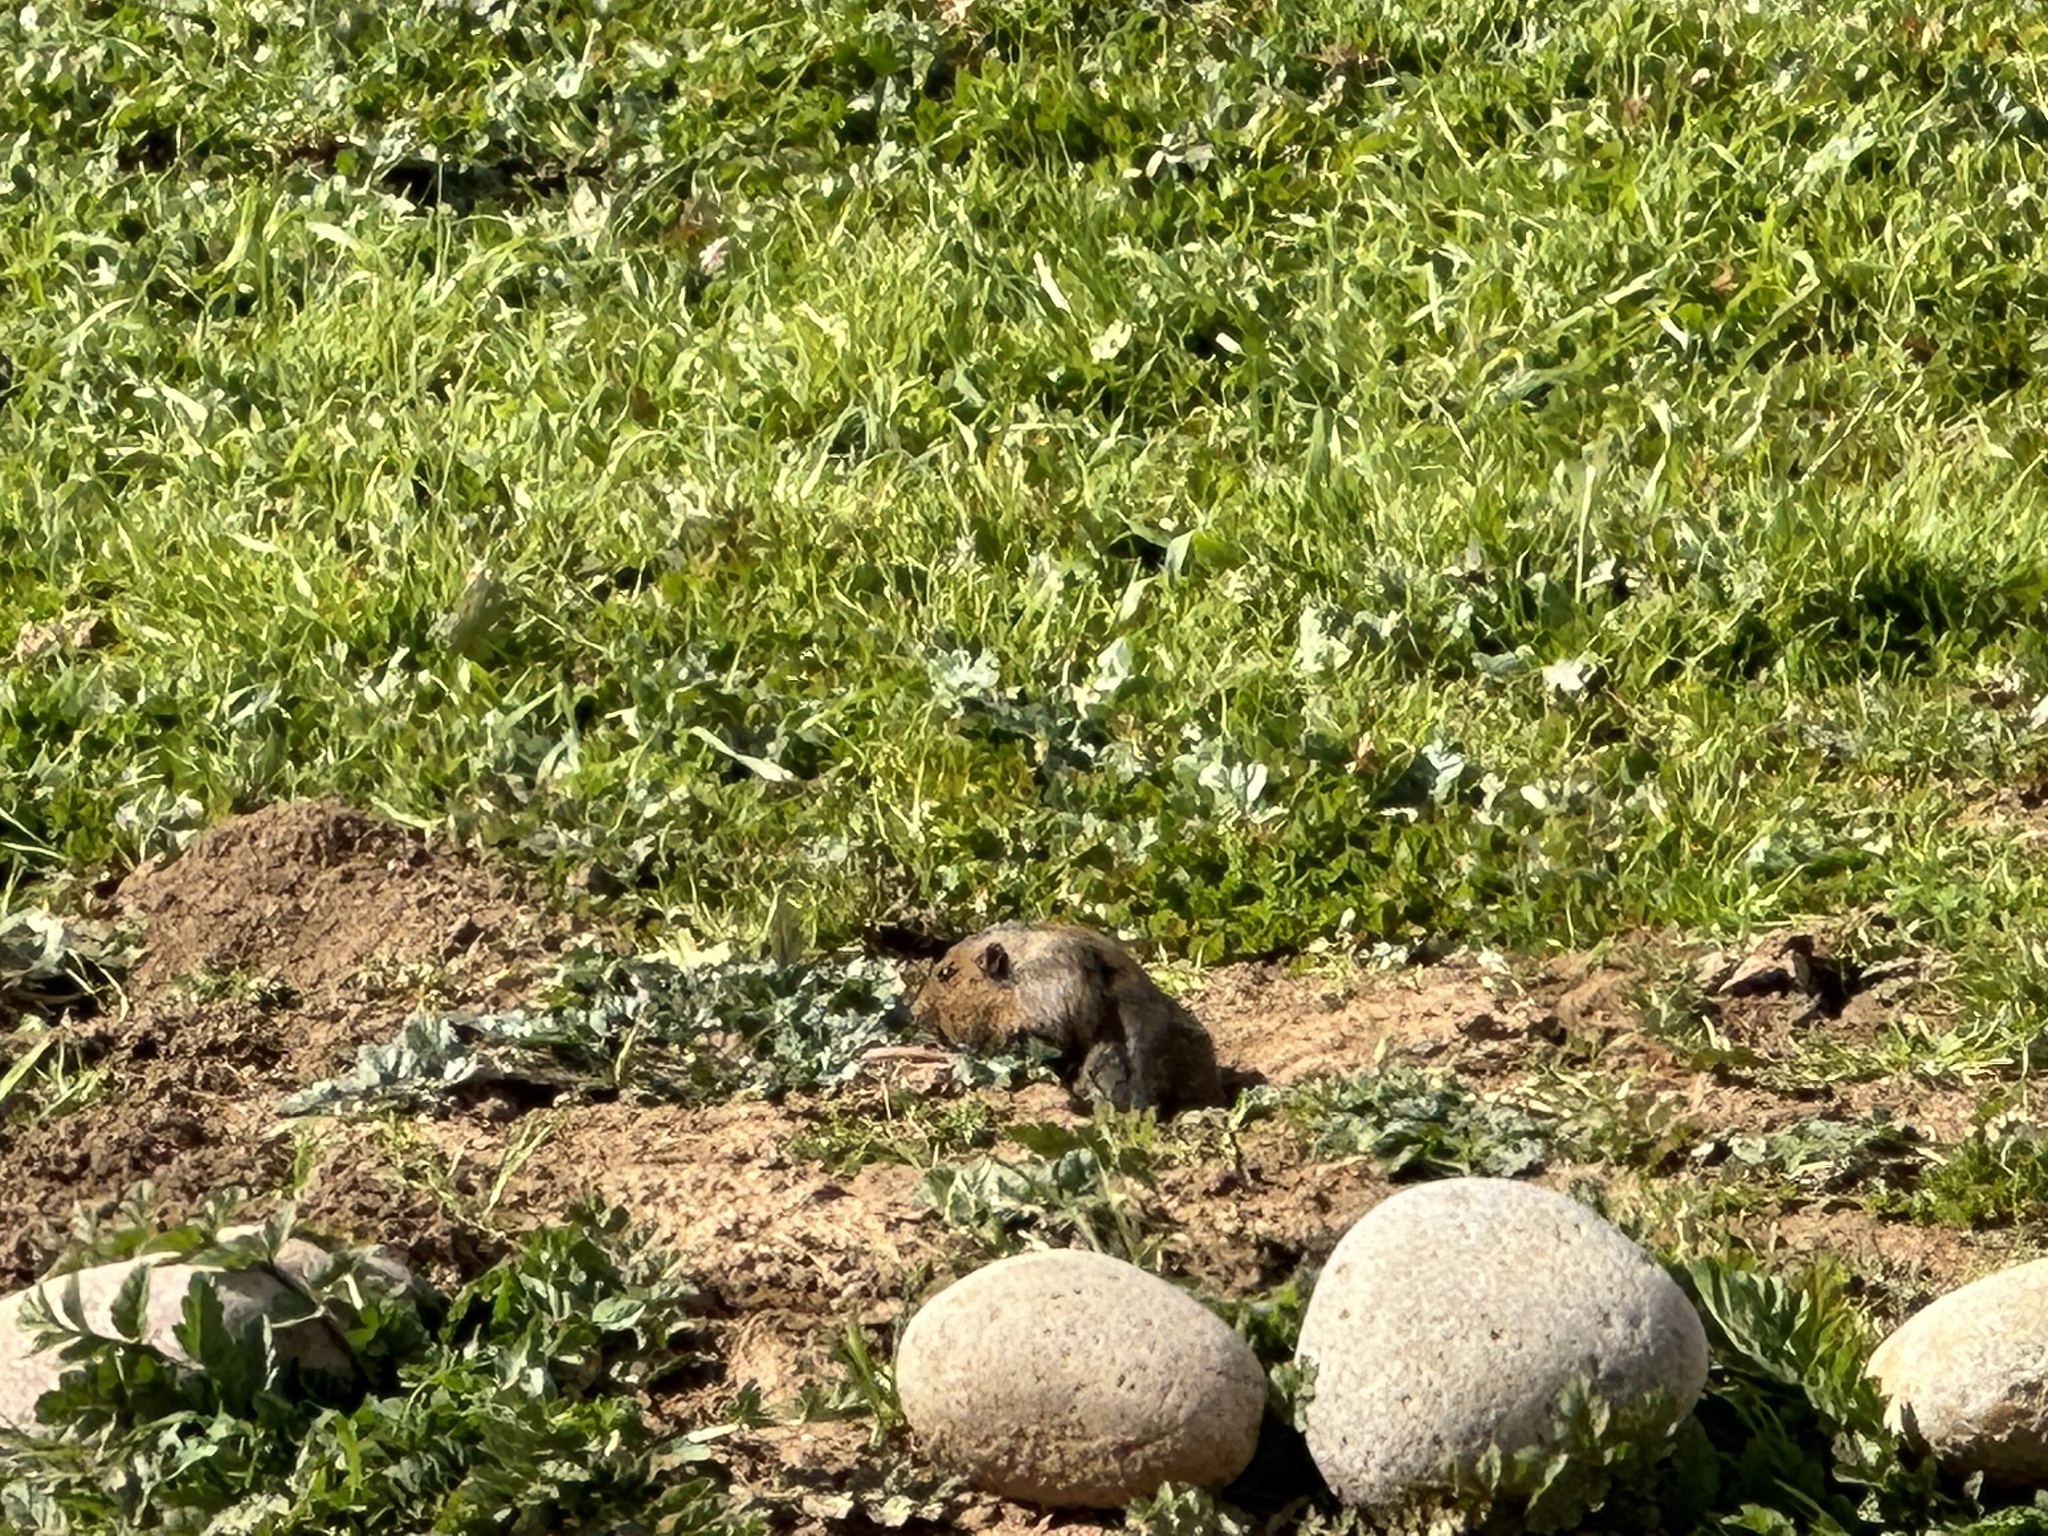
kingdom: Animalia
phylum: Chordata
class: Mammalia
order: Rodentia
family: Geomyidae
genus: Thomomys
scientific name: Thomomys bottae
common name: Botta's pocket gopher
